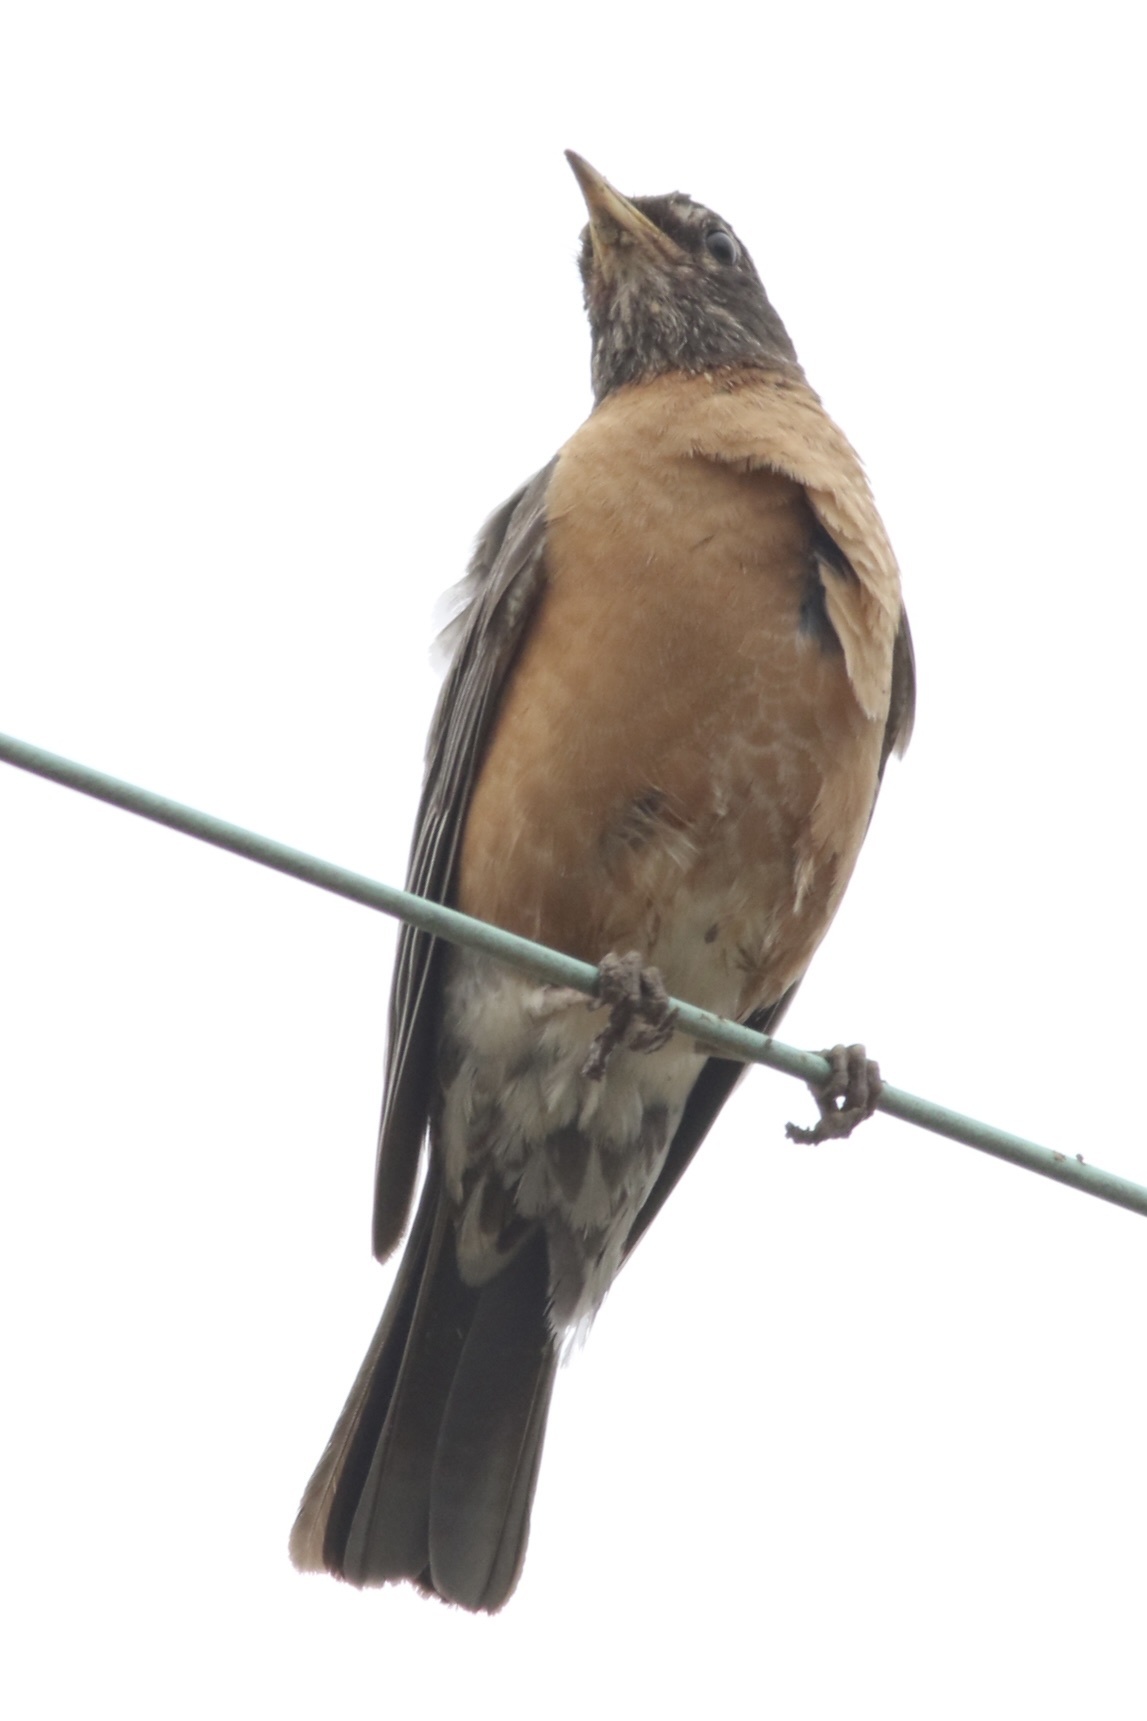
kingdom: Animalia
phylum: Chordata
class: Aves
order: Passeriformes
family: Turdidae
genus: Turdus
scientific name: Turdus migratorius
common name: American robin
